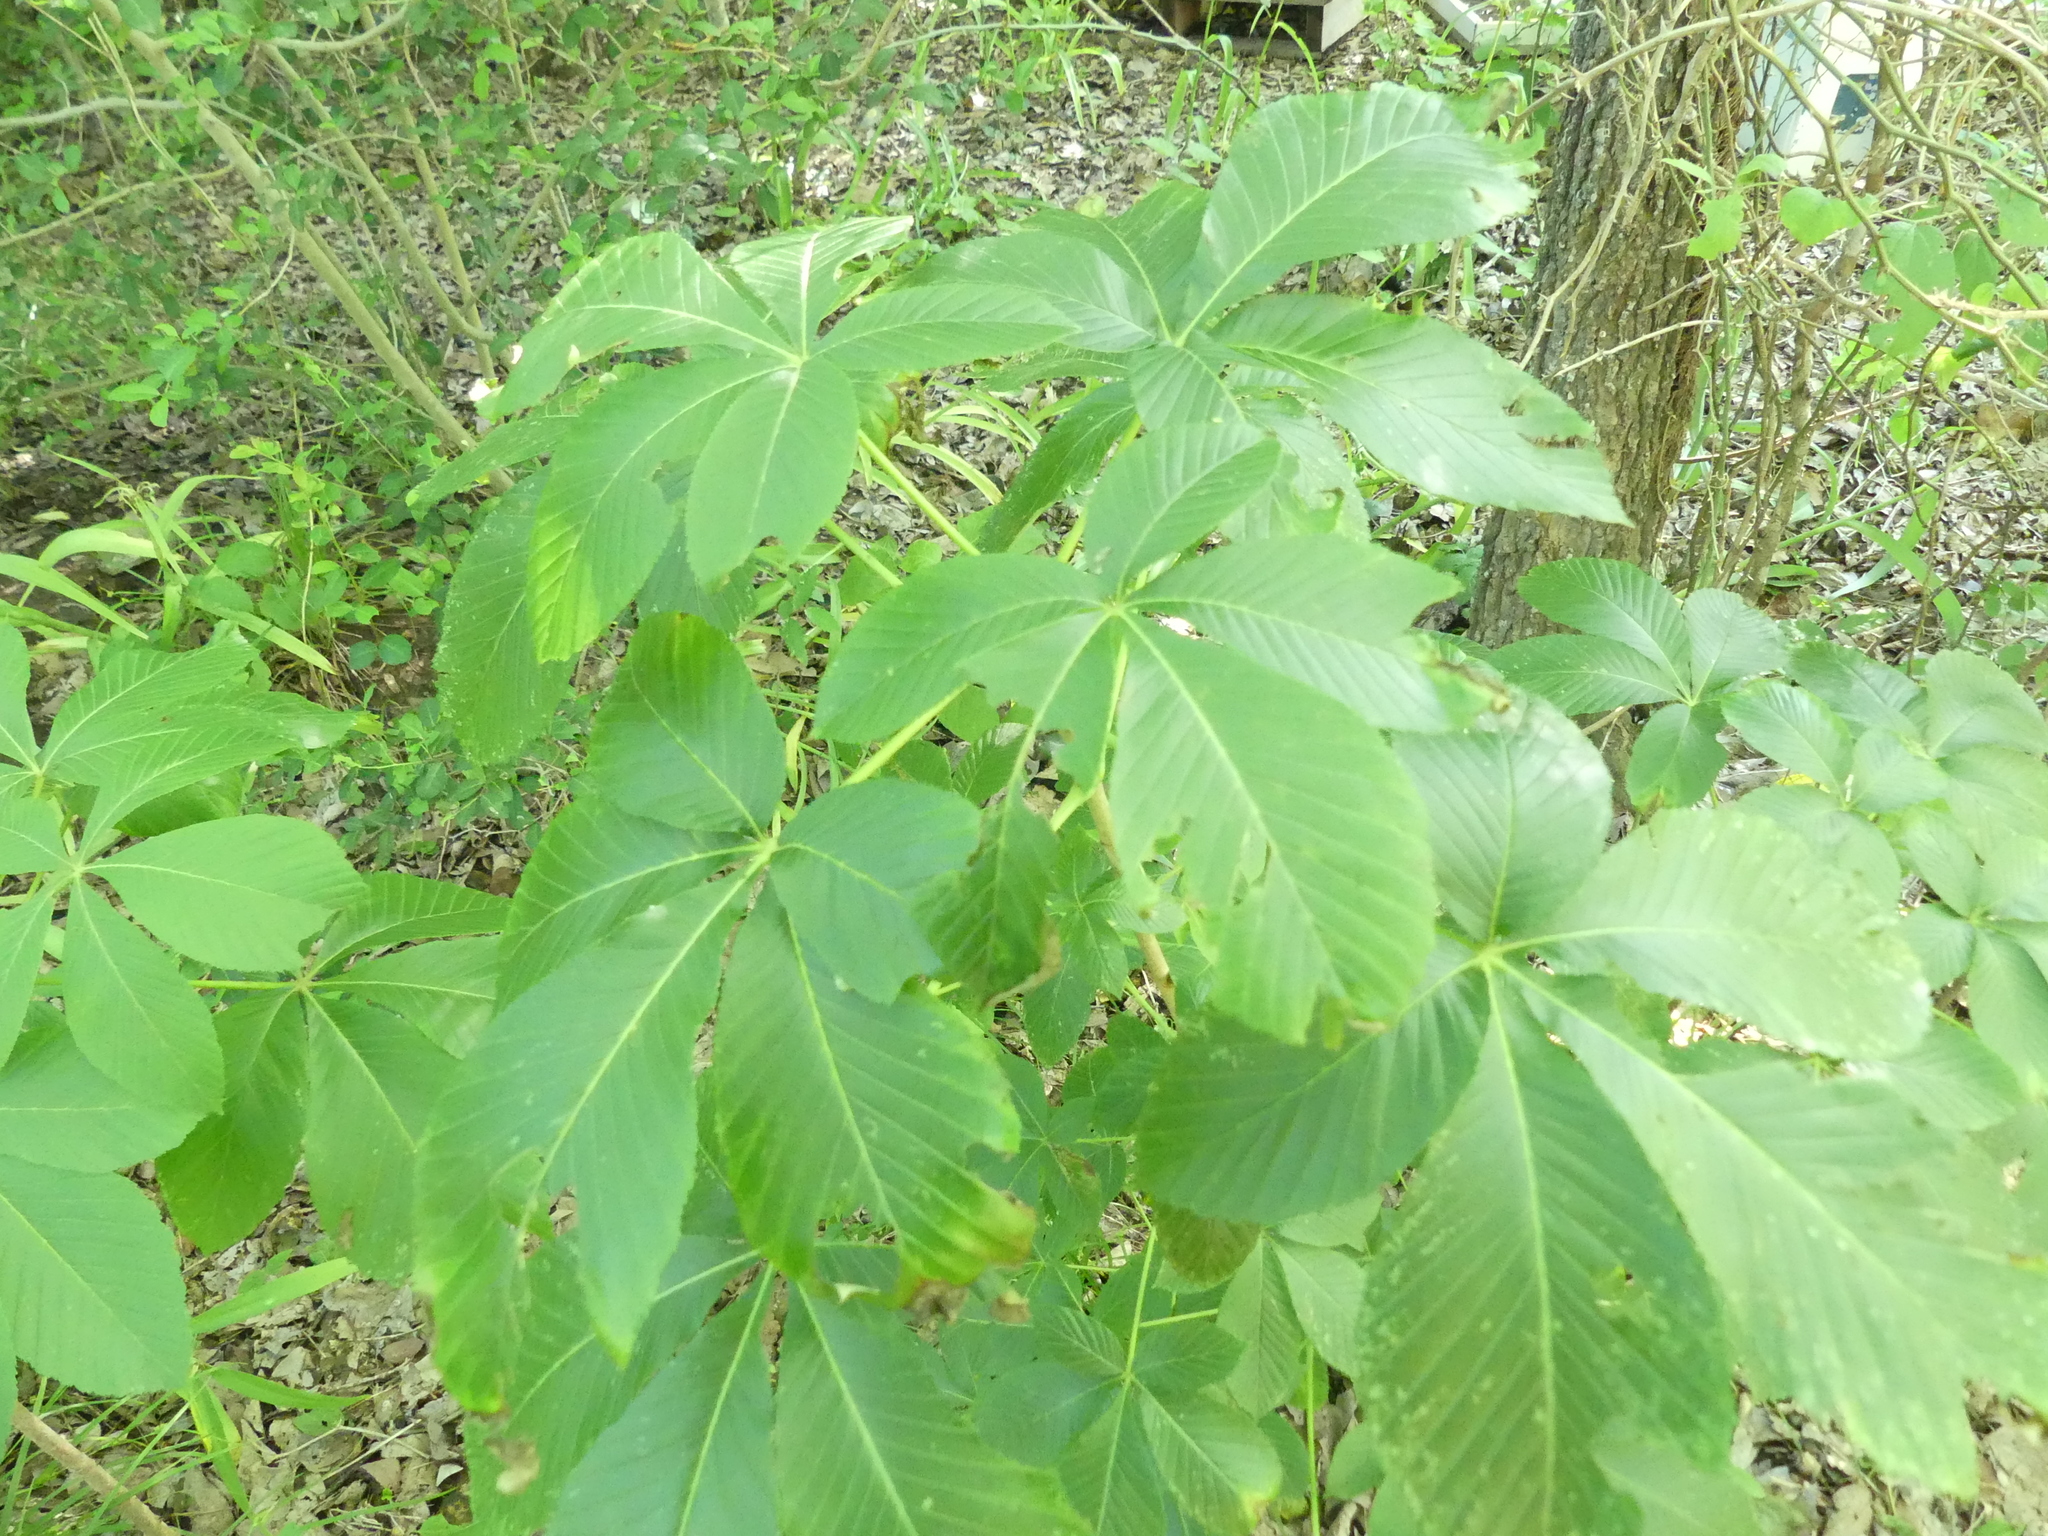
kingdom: Plantae
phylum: Tracheophyta
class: Magnoliopsida
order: Sapindales
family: Sapindaceae
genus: Aesculus
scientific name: Aesculus pavia
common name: Red buckeye
